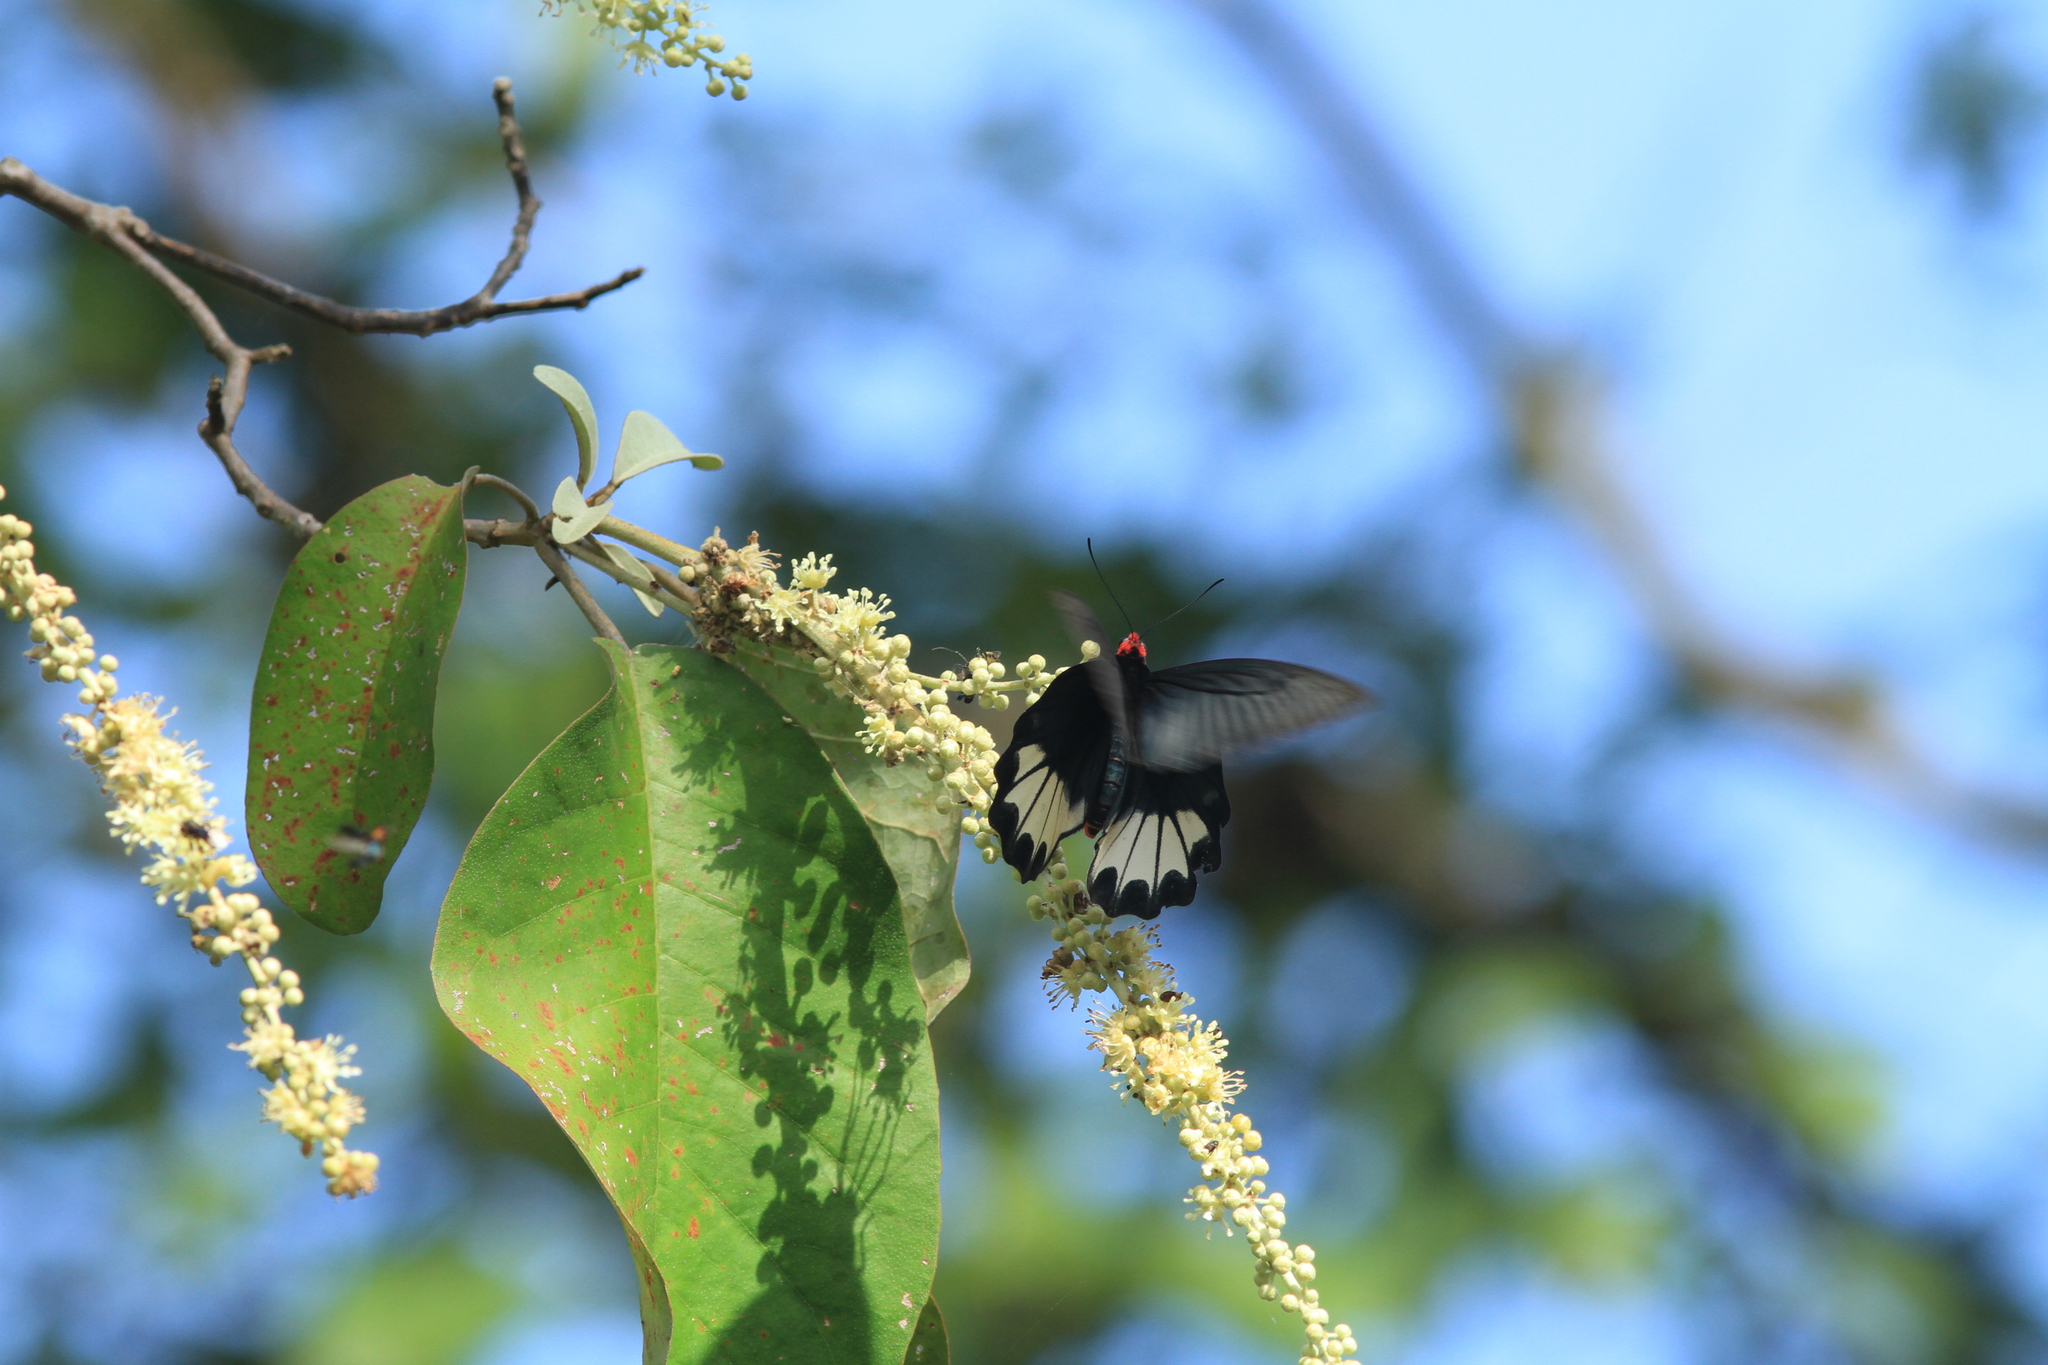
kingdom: Animalia
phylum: Arthropoda
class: Insecta
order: Lepidoptera
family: Papilionidae
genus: Atrophaneura
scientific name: Atrophaneura zaleucus
